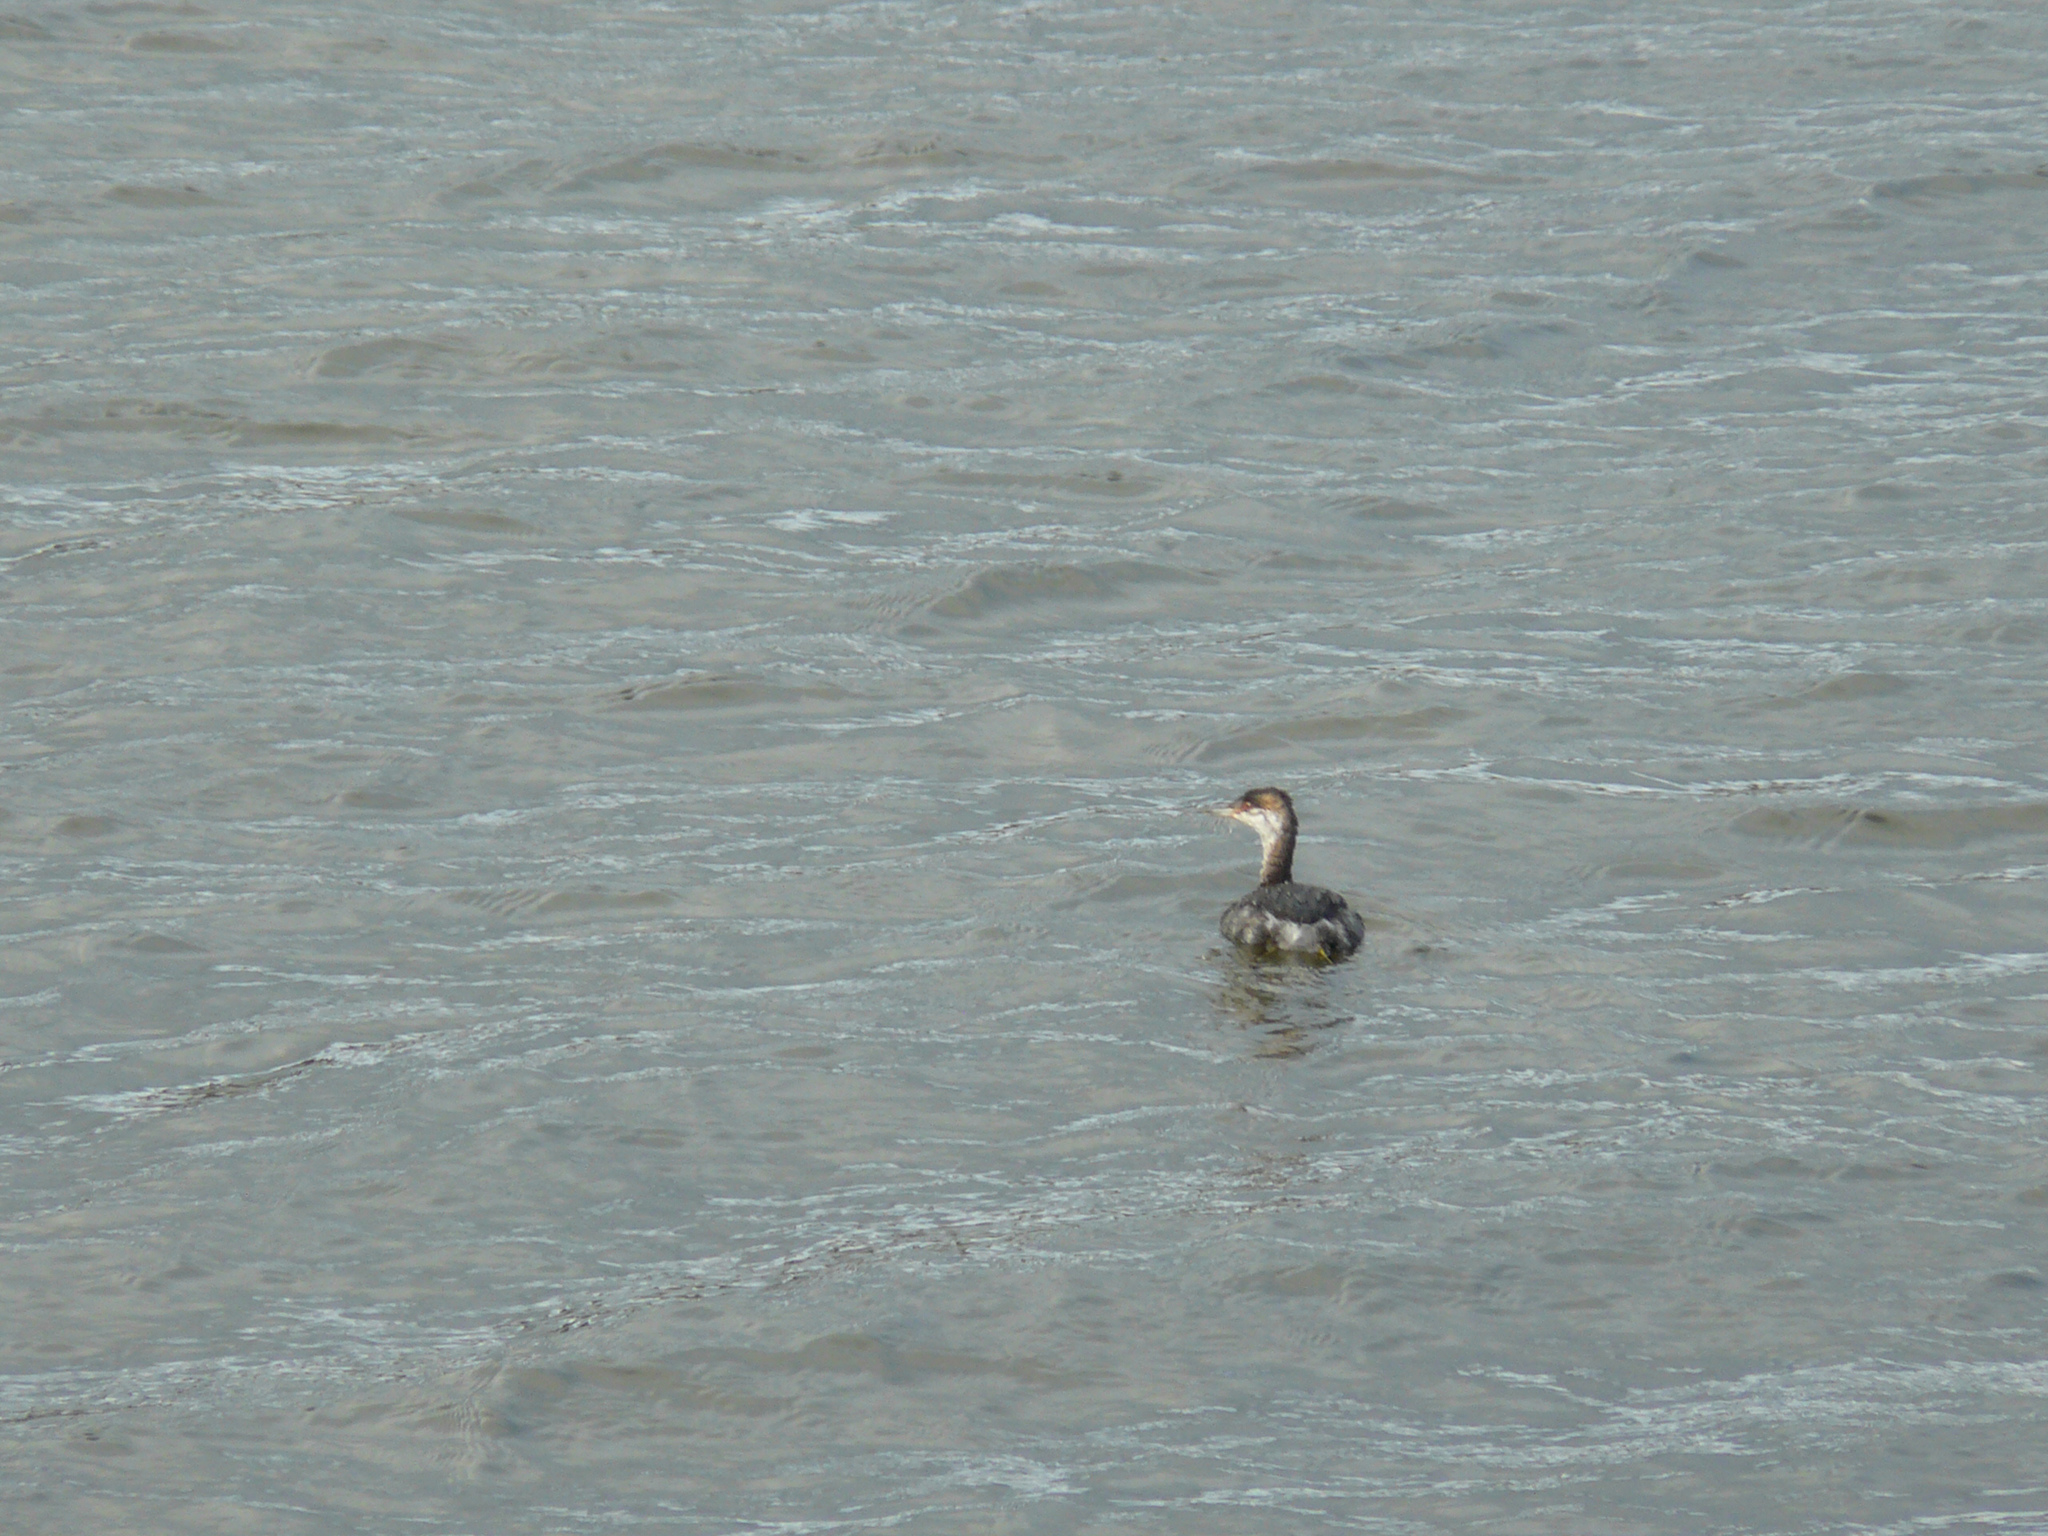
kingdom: Animalia
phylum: Chordata
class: Aves
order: Podicipediformes
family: Podicipedidae
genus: Podiceps
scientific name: Podiceps auritus
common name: Horned grebe
